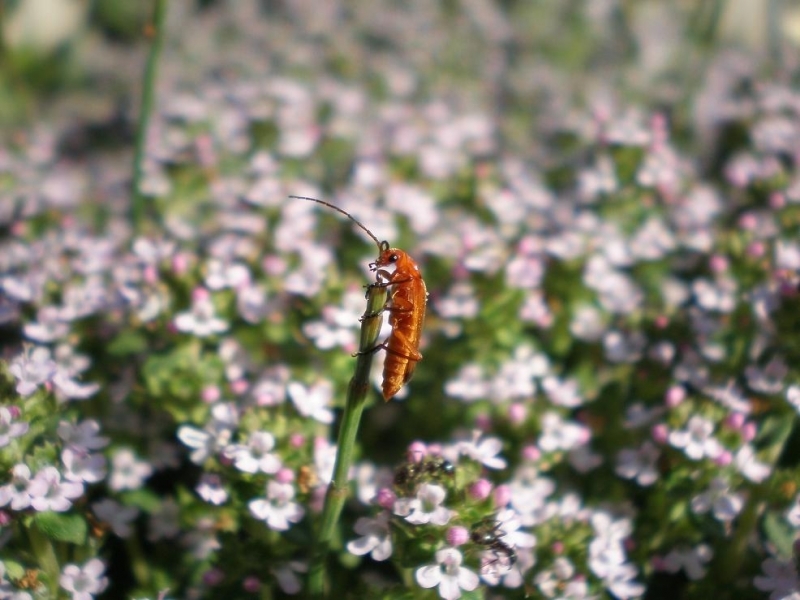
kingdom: Animalia
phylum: Arthropoda
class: Insecta
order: Coleoptera
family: Cantharidae
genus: Rhagonycha
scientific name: Rhagonycha fulva
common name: Common red soldier beetle
